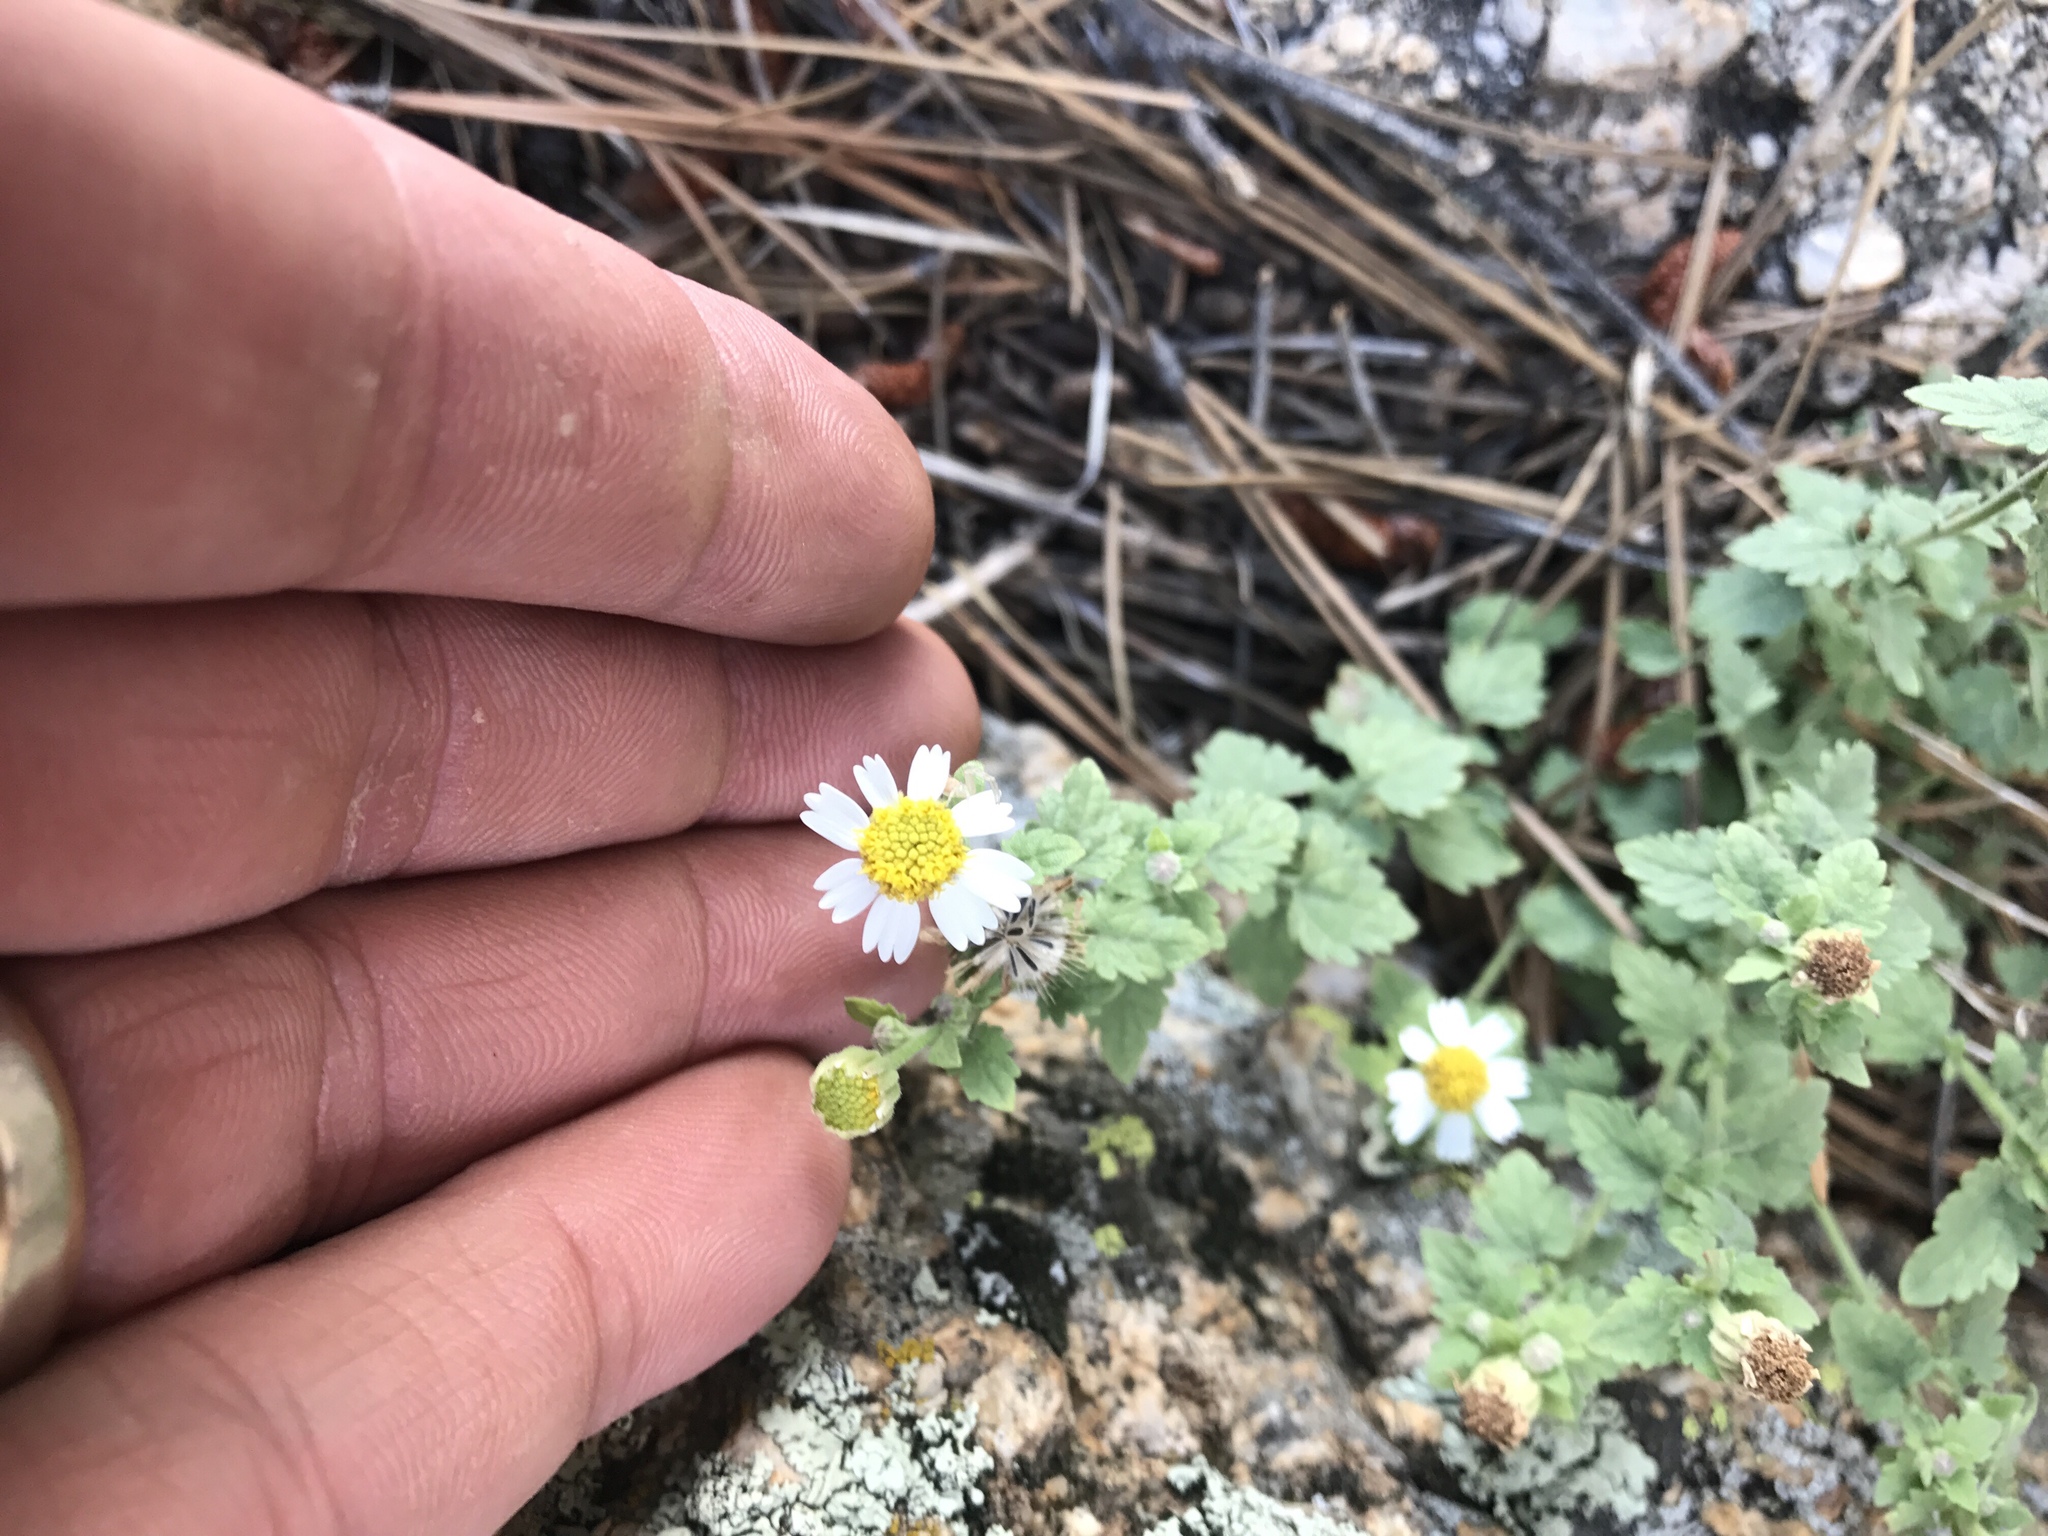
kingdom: Plantae
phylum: Tracheophyta
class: Magnoliopsida
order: Asterales
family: Asteraceae
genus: Laphamia
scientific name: Laphamia emoryi
